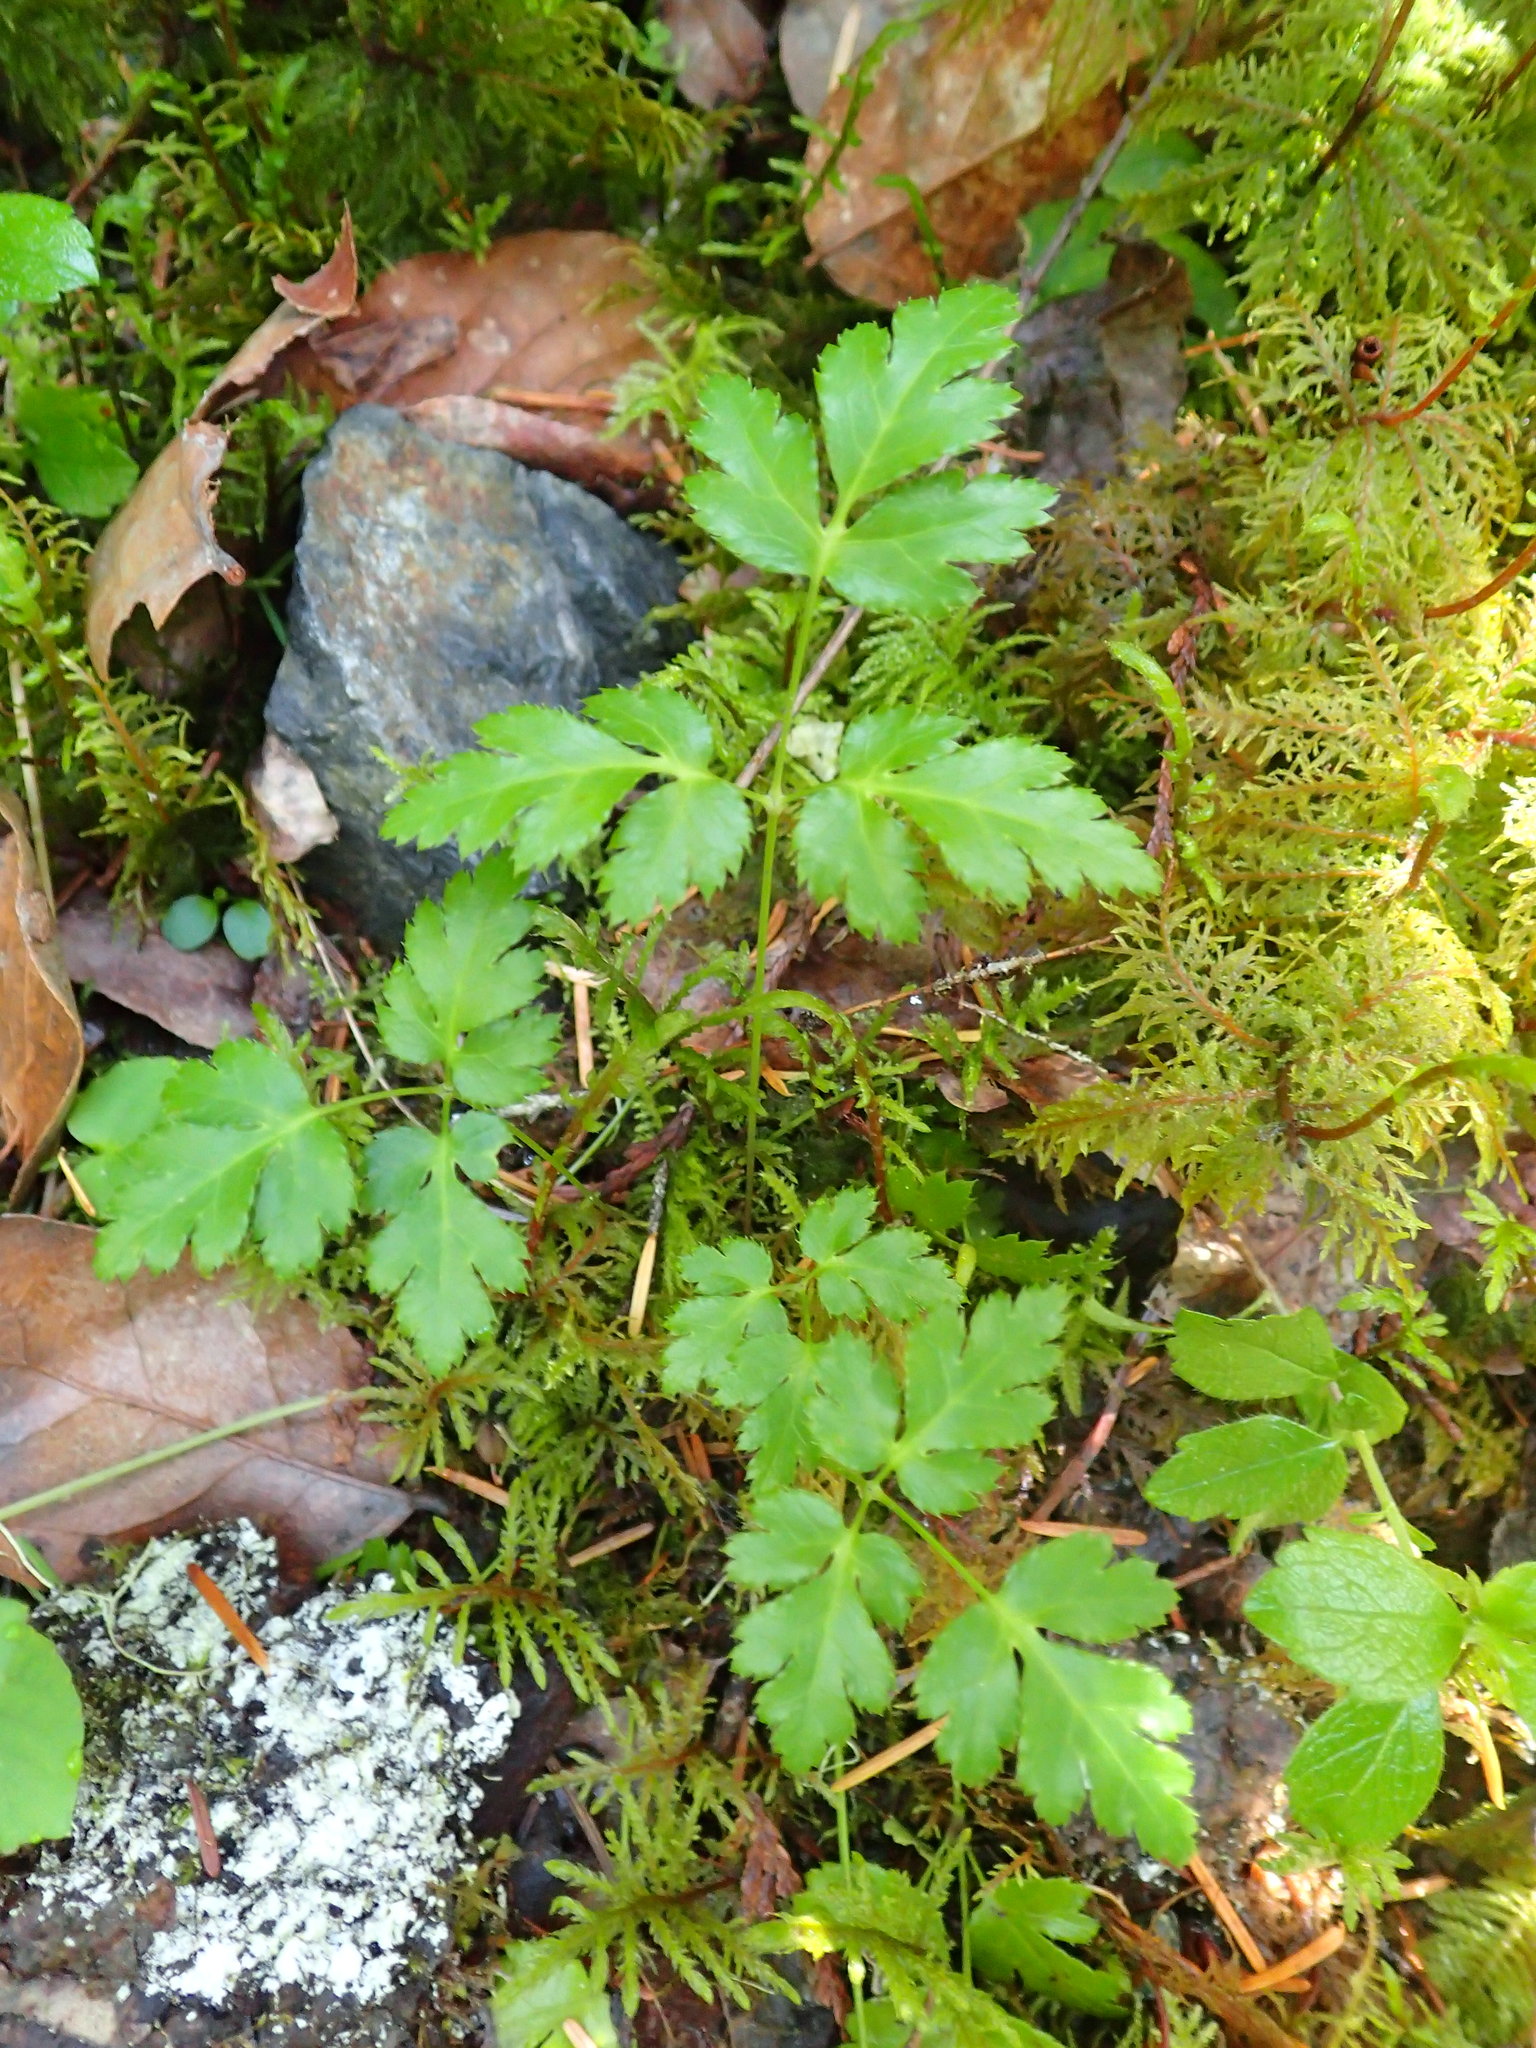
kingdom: Plantae
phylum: Tracheophyta
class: Magnoliopsida
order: Ranunculales
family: Ranunculaceae
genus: Coptis
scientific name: Coptis laciniata
